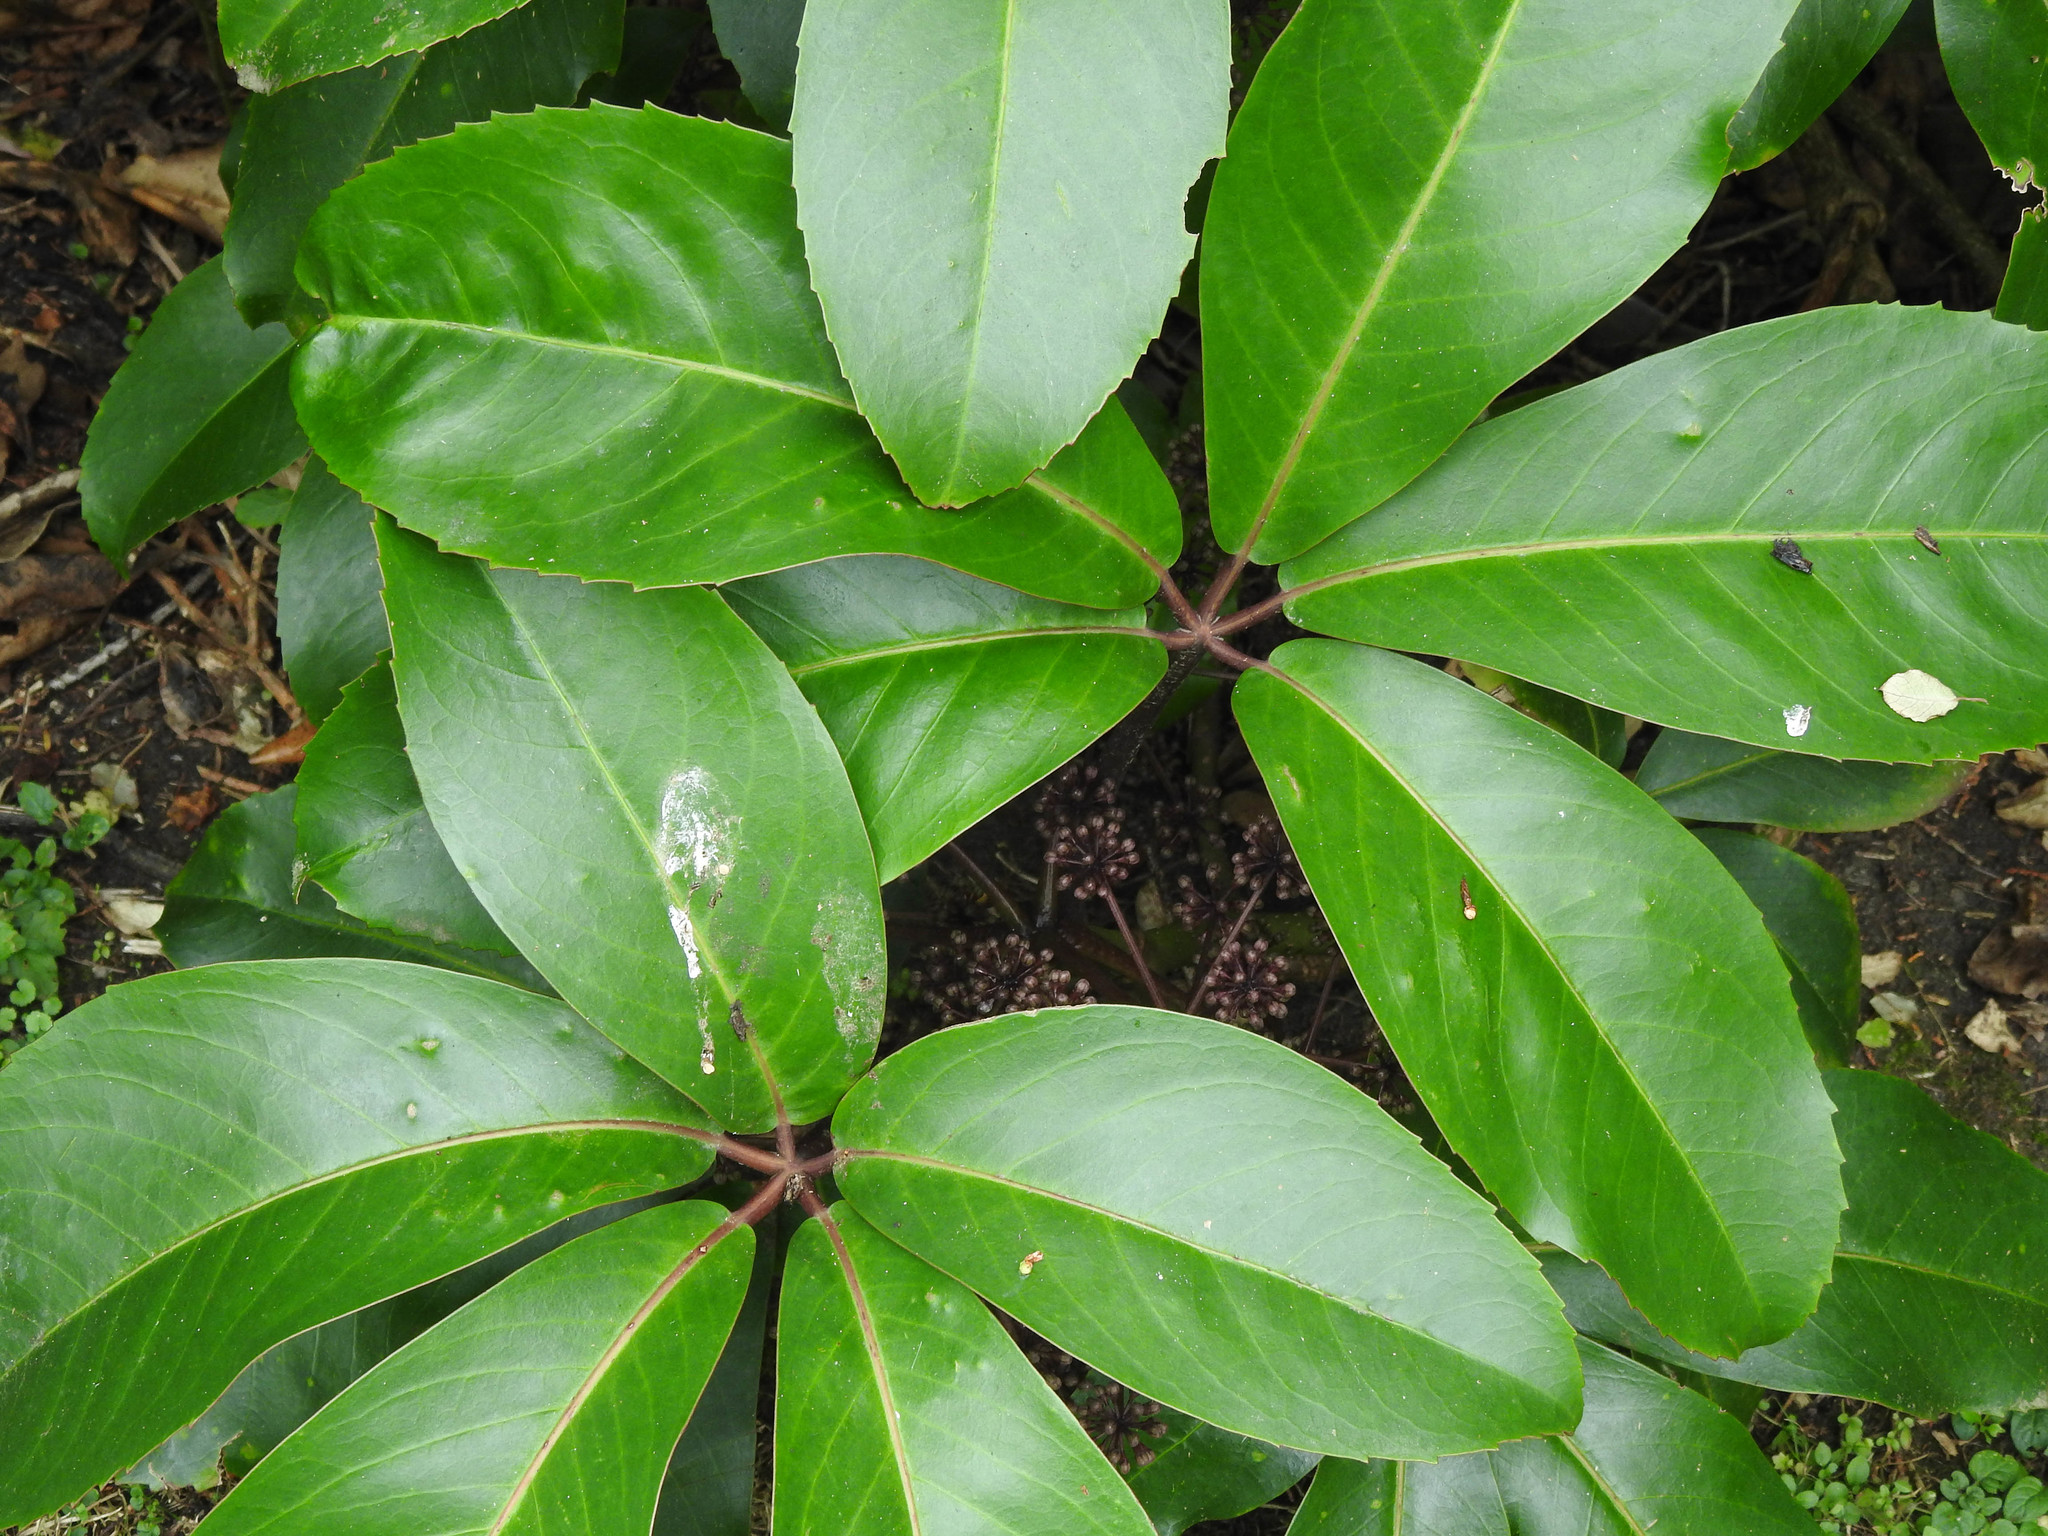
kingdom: Plantae
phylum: Tracheophyta
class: Magnoliopsida
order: Apiales
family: Araliaceae
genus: Neopanax
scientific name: Neopanax laetus
